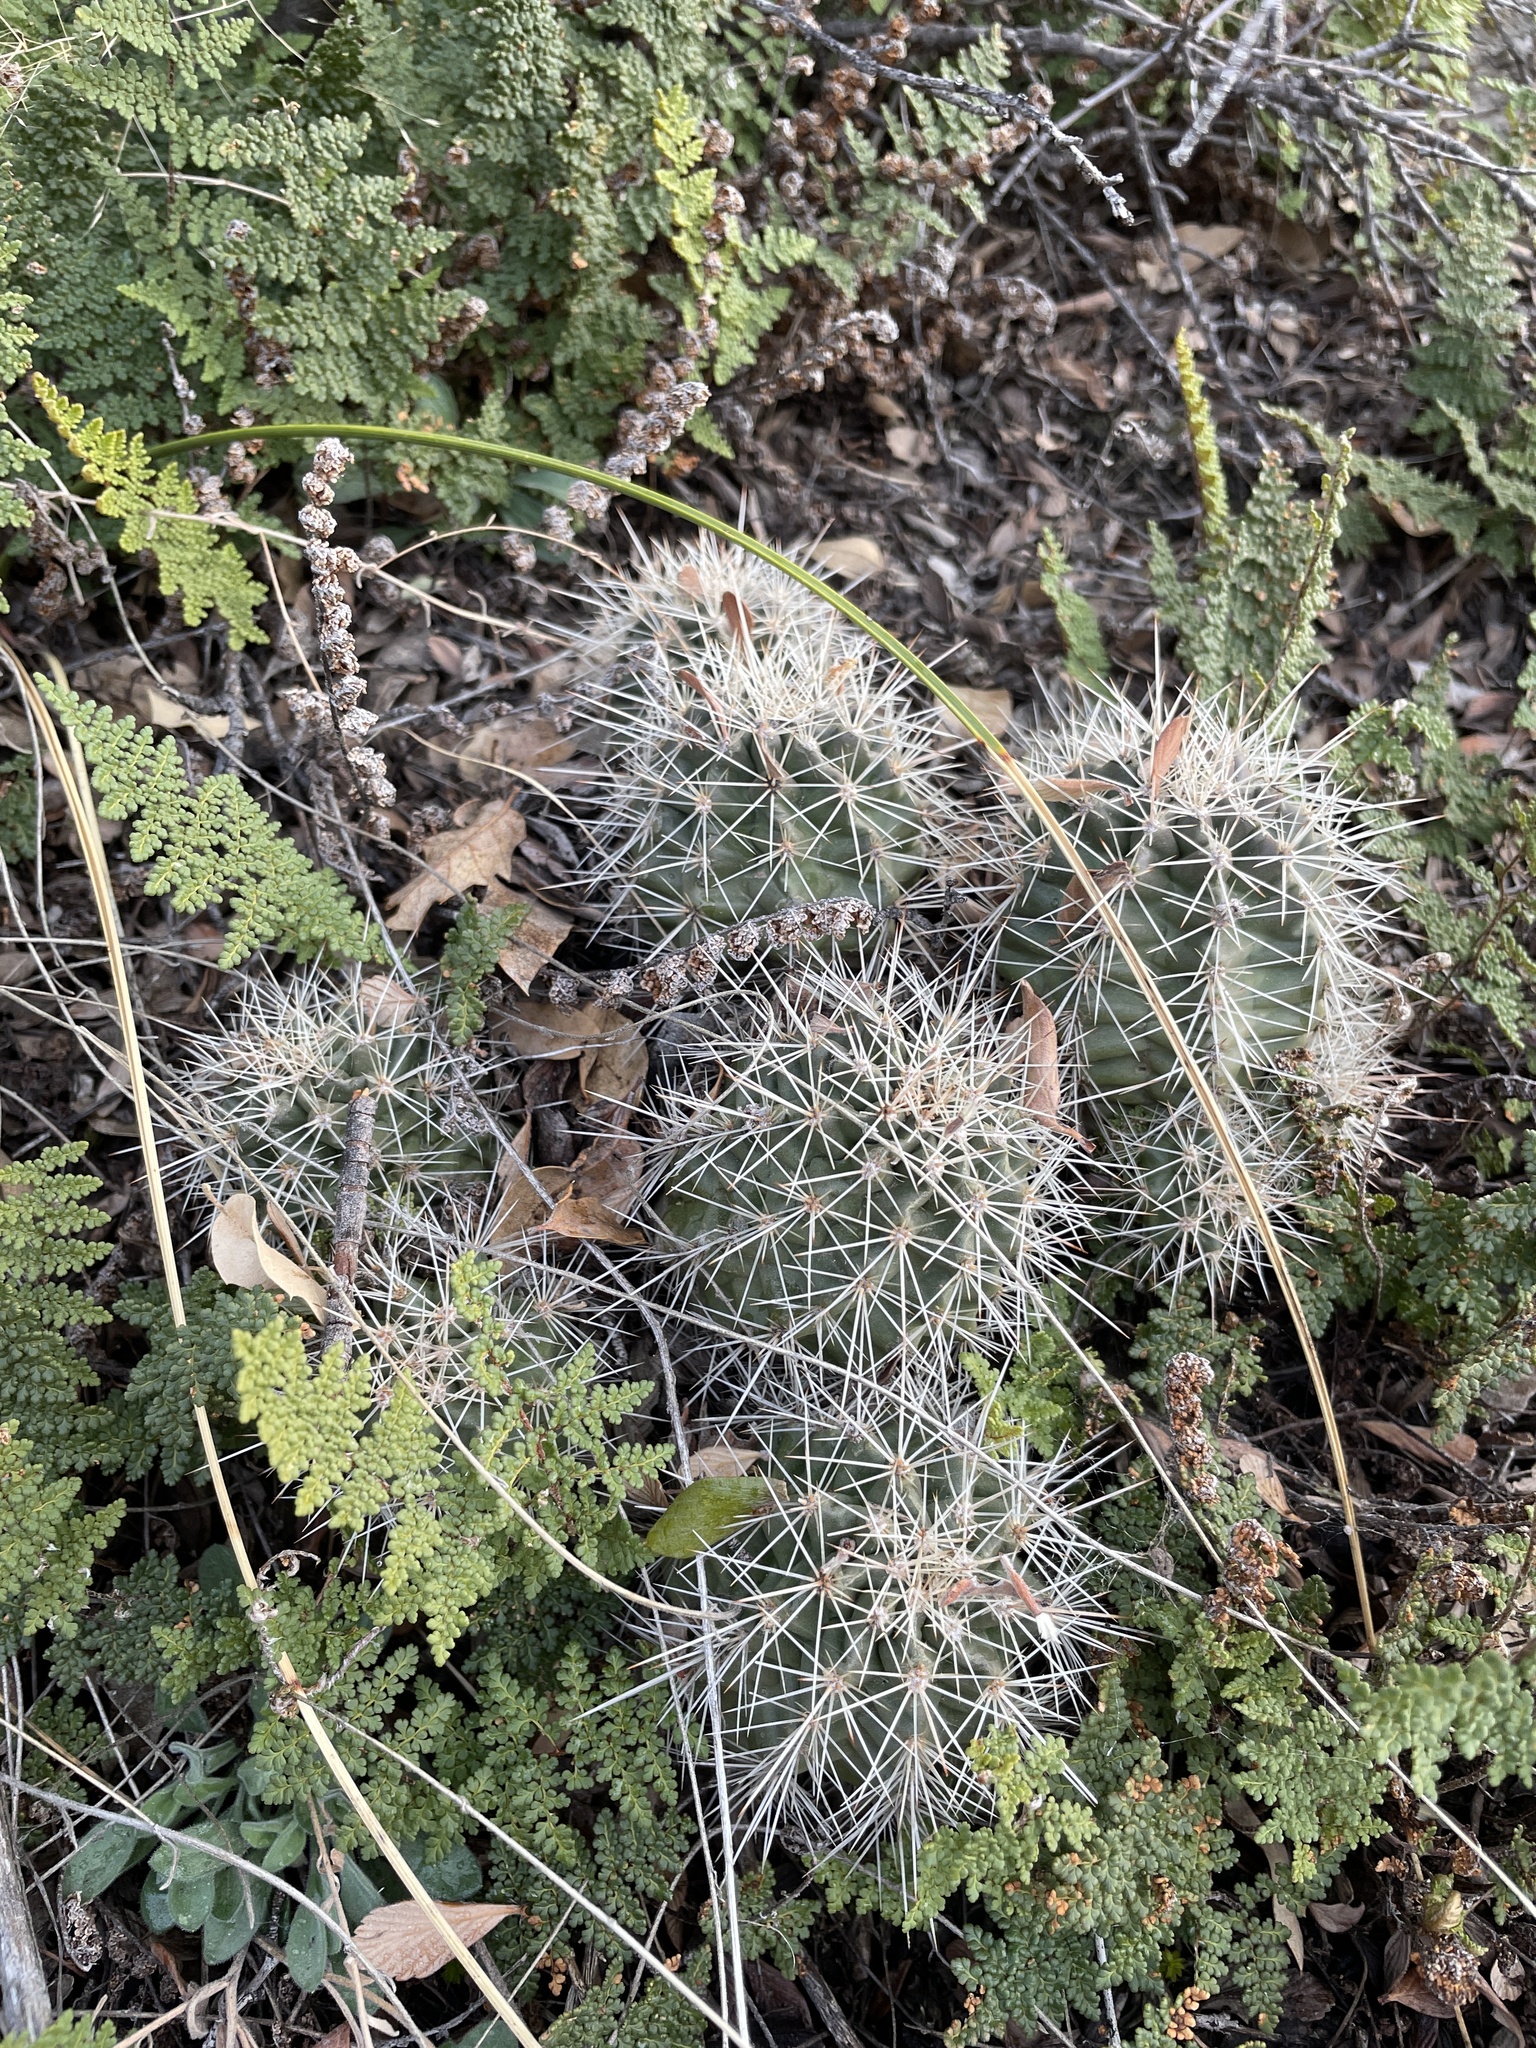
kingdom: Plantae
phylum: Tracheophyta
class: Magnoliopsida
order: Caryophyllales
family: Cactaceae
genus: Echinocereus
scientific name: Echinocereus coccineus
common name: Scarlet hedgehog cactus
